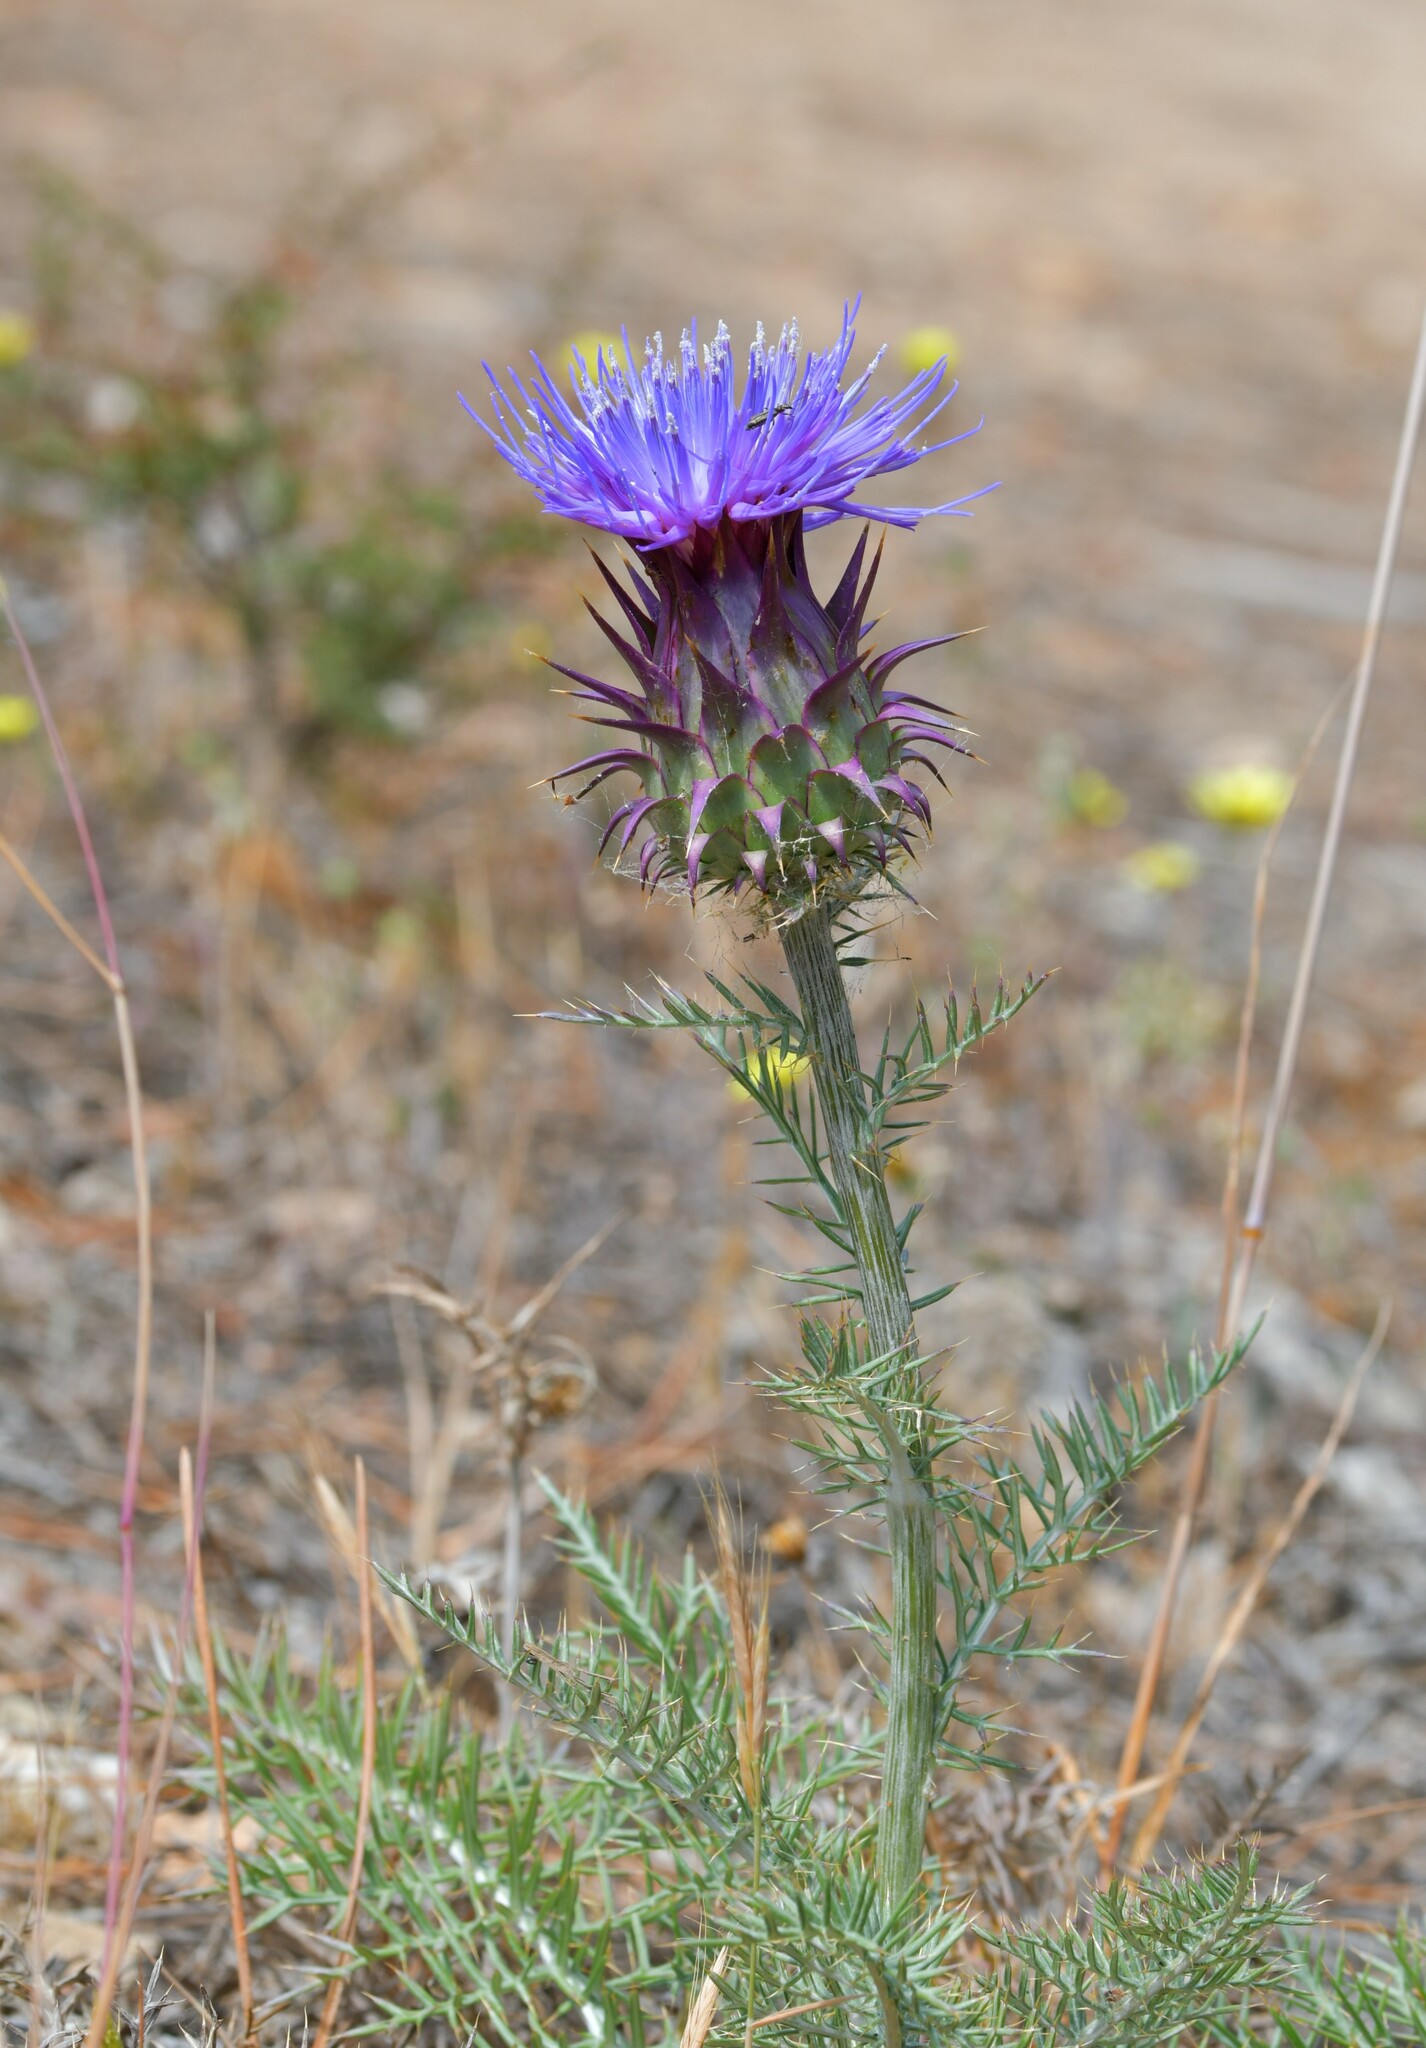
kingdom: Plantae
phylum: Tracheophyta
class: Magnoliopsida
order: Asterales
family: Asteraceae
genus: Cynara
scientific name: Cynara humilis
